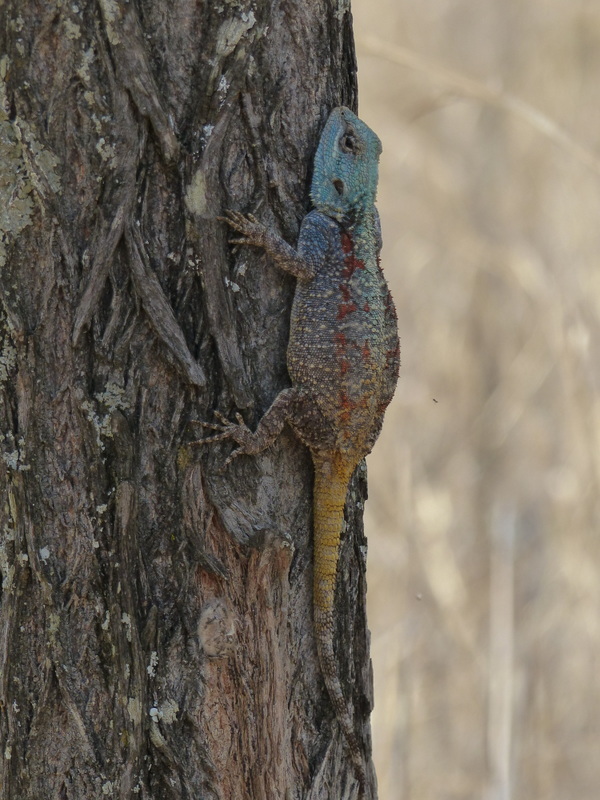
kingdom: Animalia
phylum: Chordata
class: Squamata
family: Agamidae
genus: Acanthocercus
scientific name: Acanthocercus atricollis
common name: Southern tree agama
